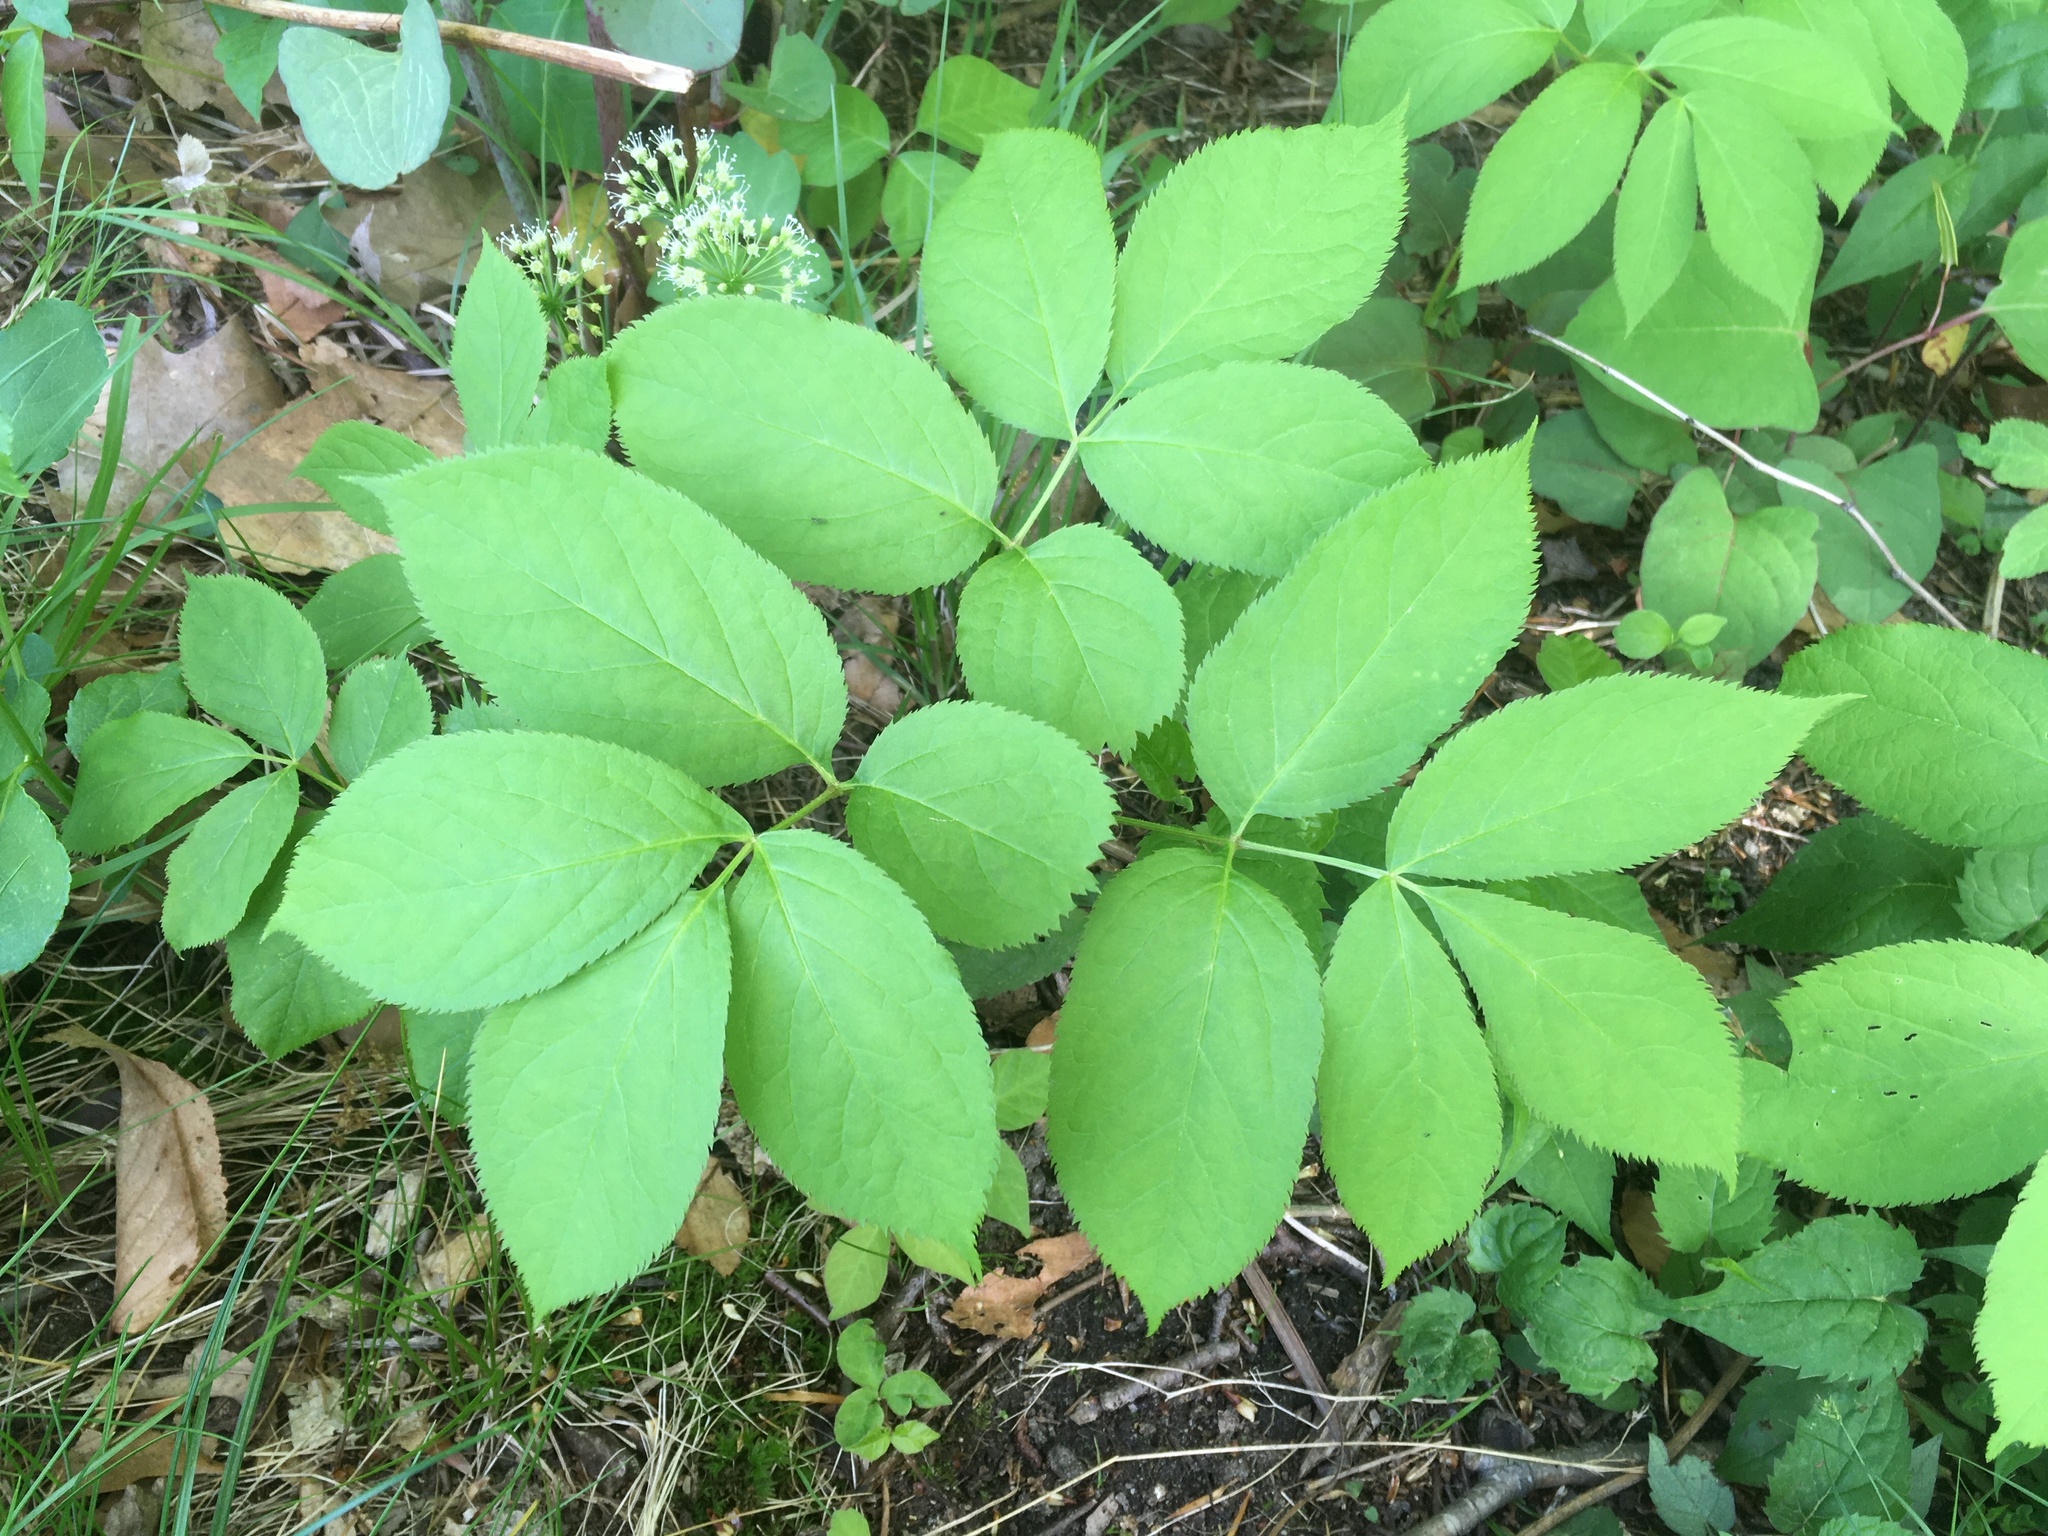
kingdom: Plantae
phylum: Tracheophyta
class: Magnoliopsida
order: Apiales
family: Araliaceae
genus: Aralia
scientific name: Aralia nudicaulis
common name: Wild sarsaparilla
